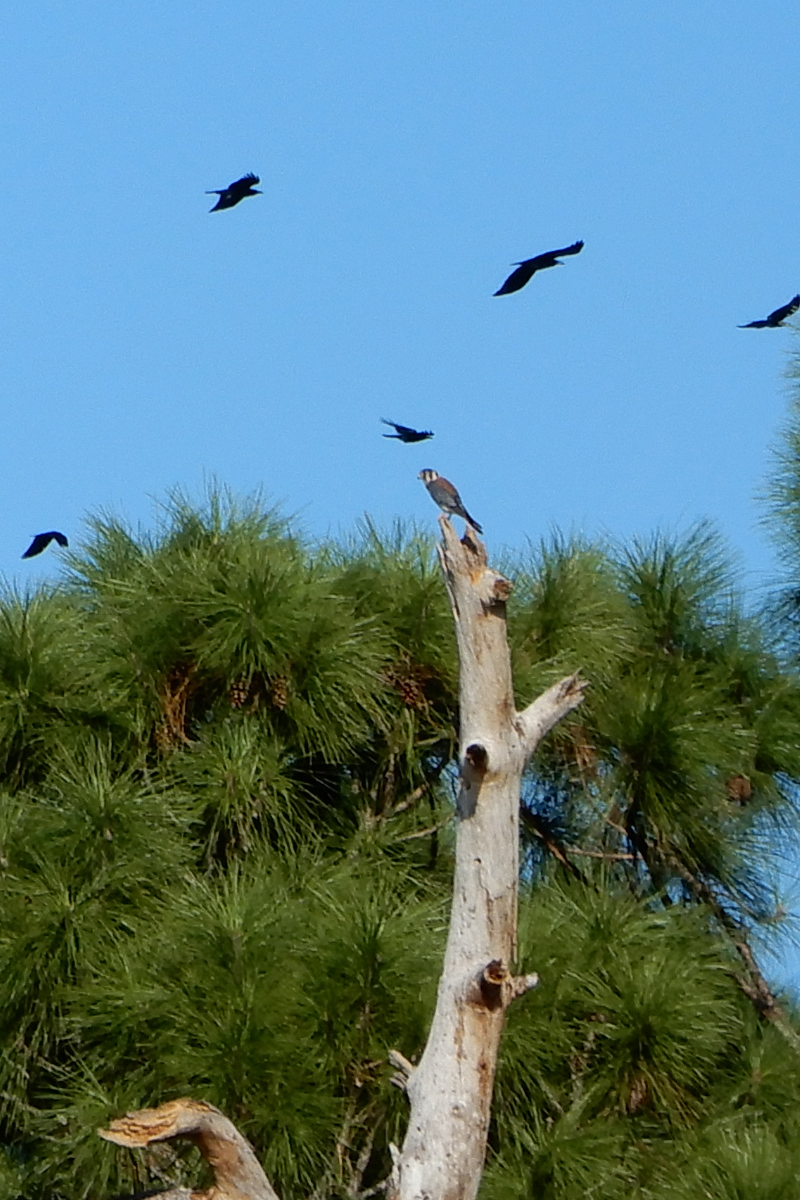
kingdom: Animalia
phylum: Chordata
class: Aves
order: Falconiformes
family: Falconidae
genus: Falco
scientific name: Falco sparverius
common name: American kestrel
